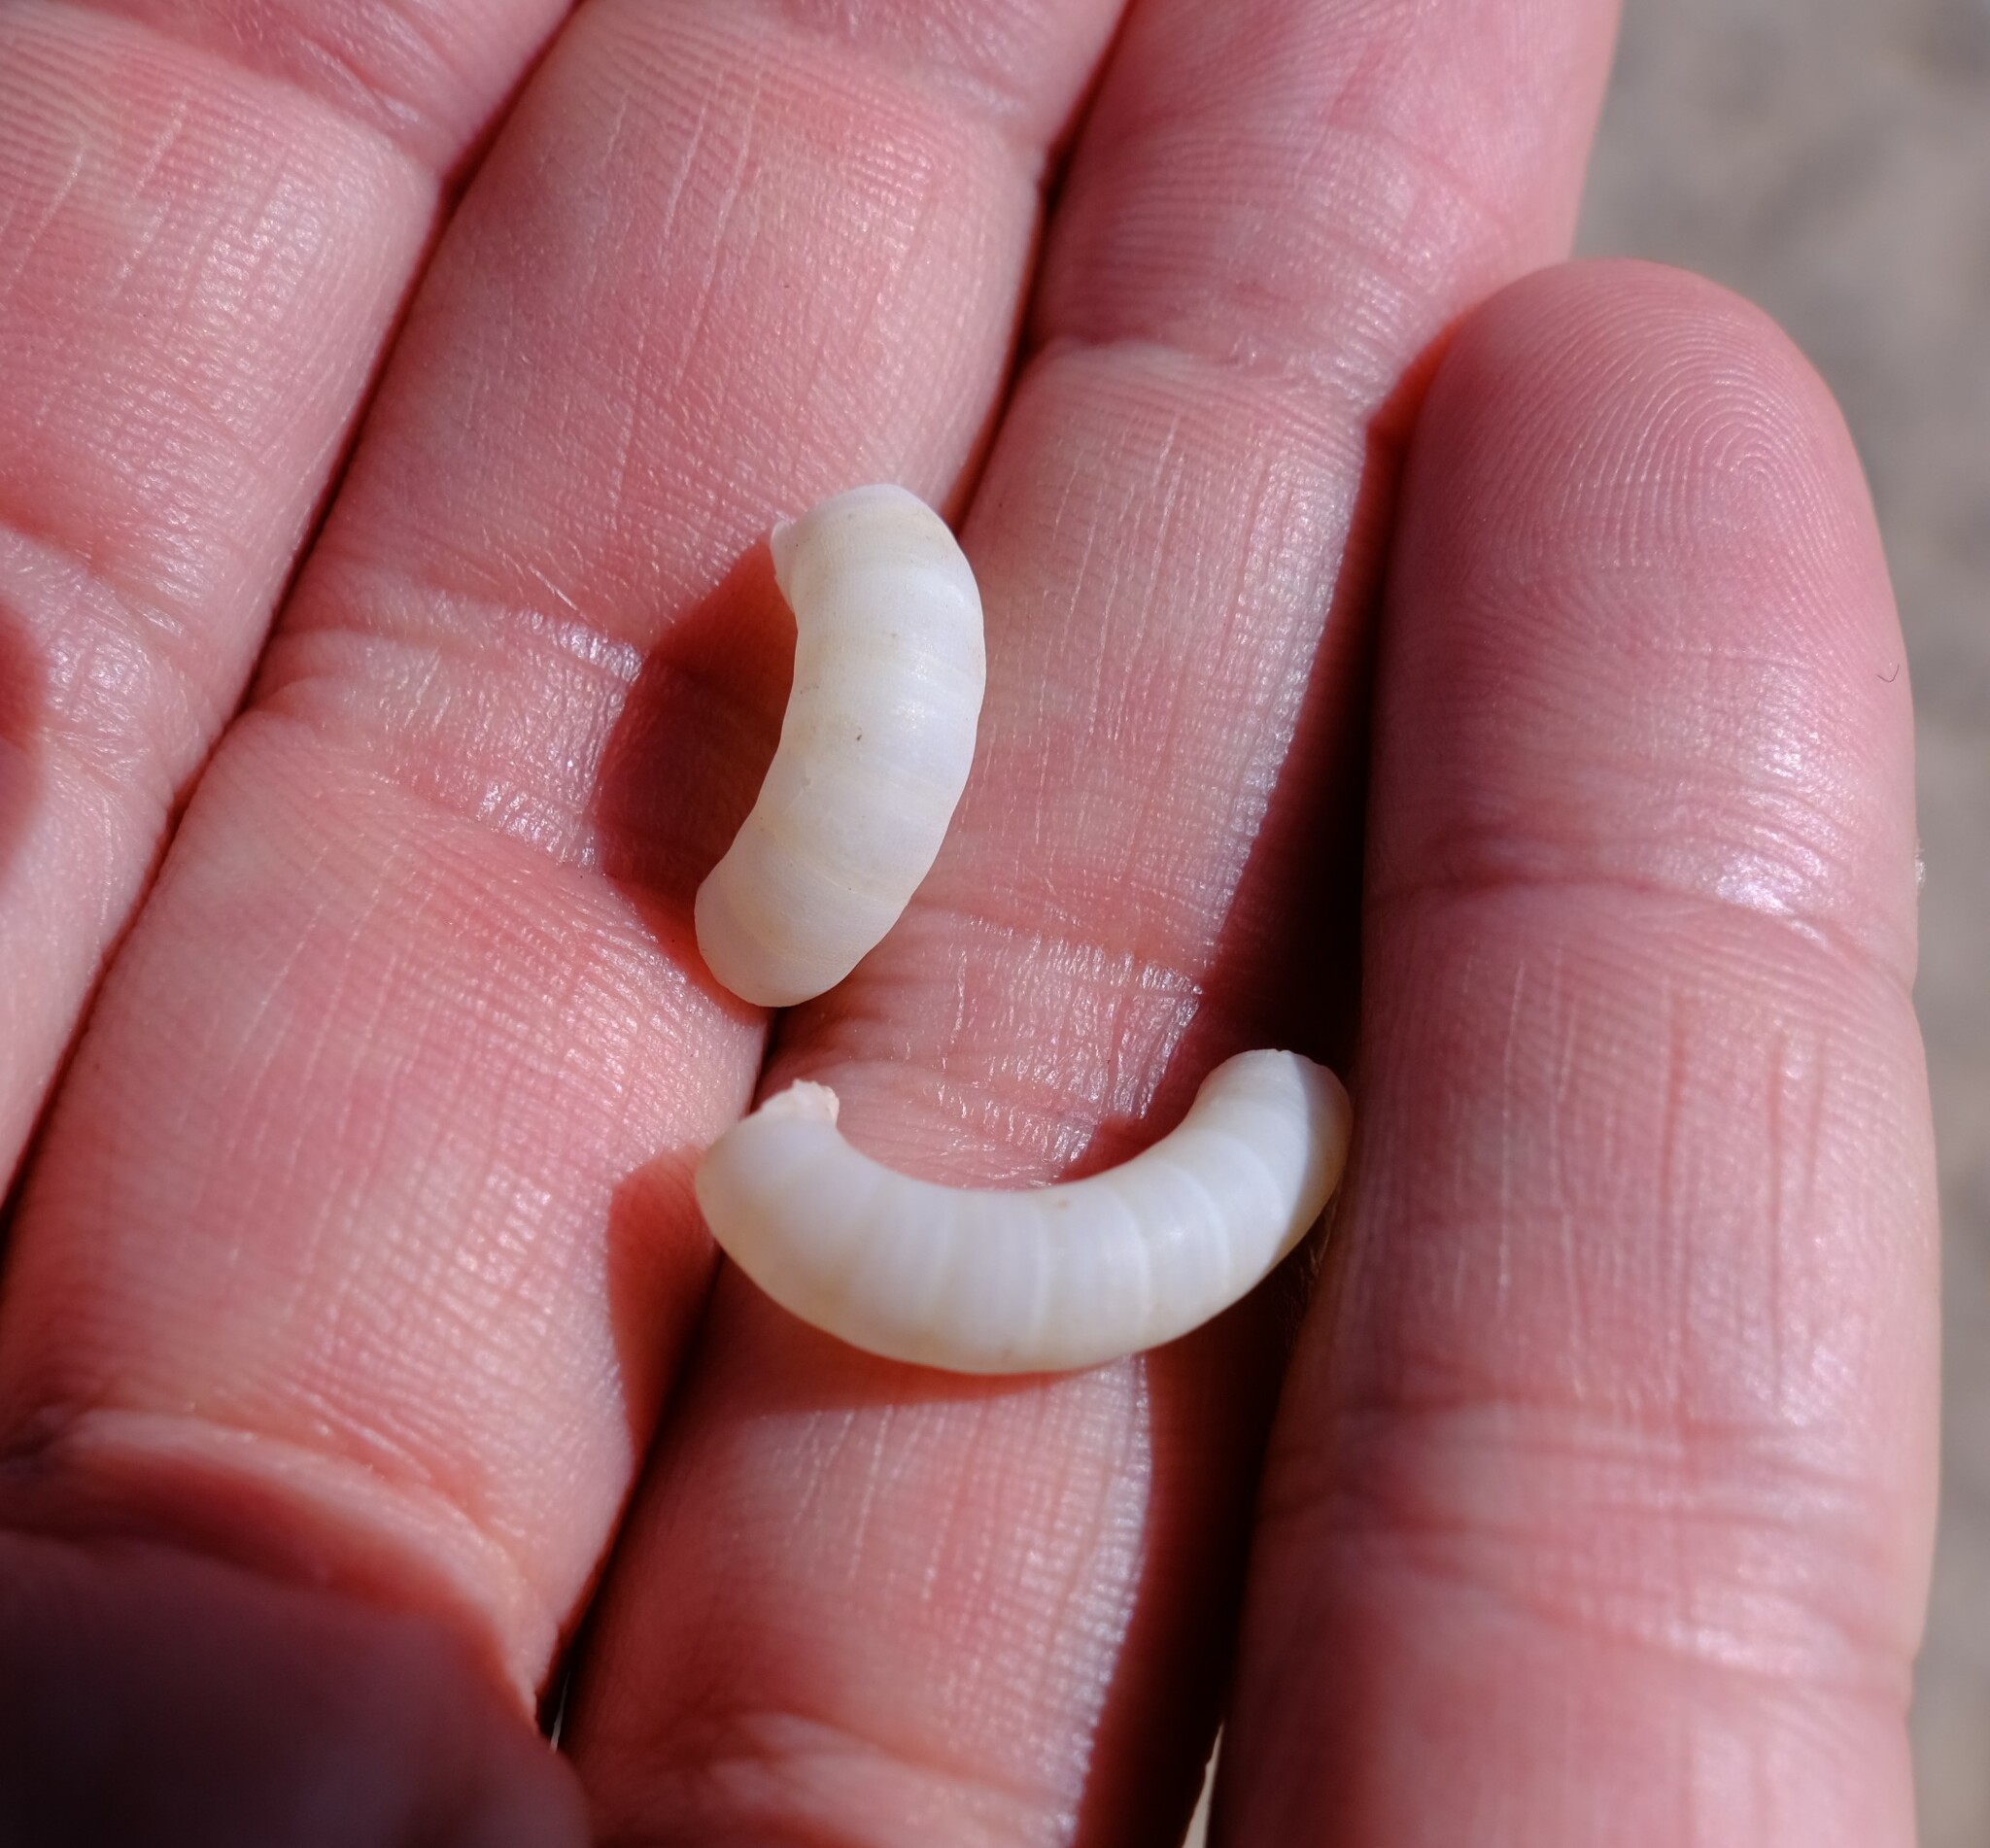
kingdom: Animalia
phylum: Mollusca
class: Cephalopoda
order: Spirulida
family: Spirulidae
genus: Spirula
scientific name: Spirula spirula
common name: Ram's horn squid
